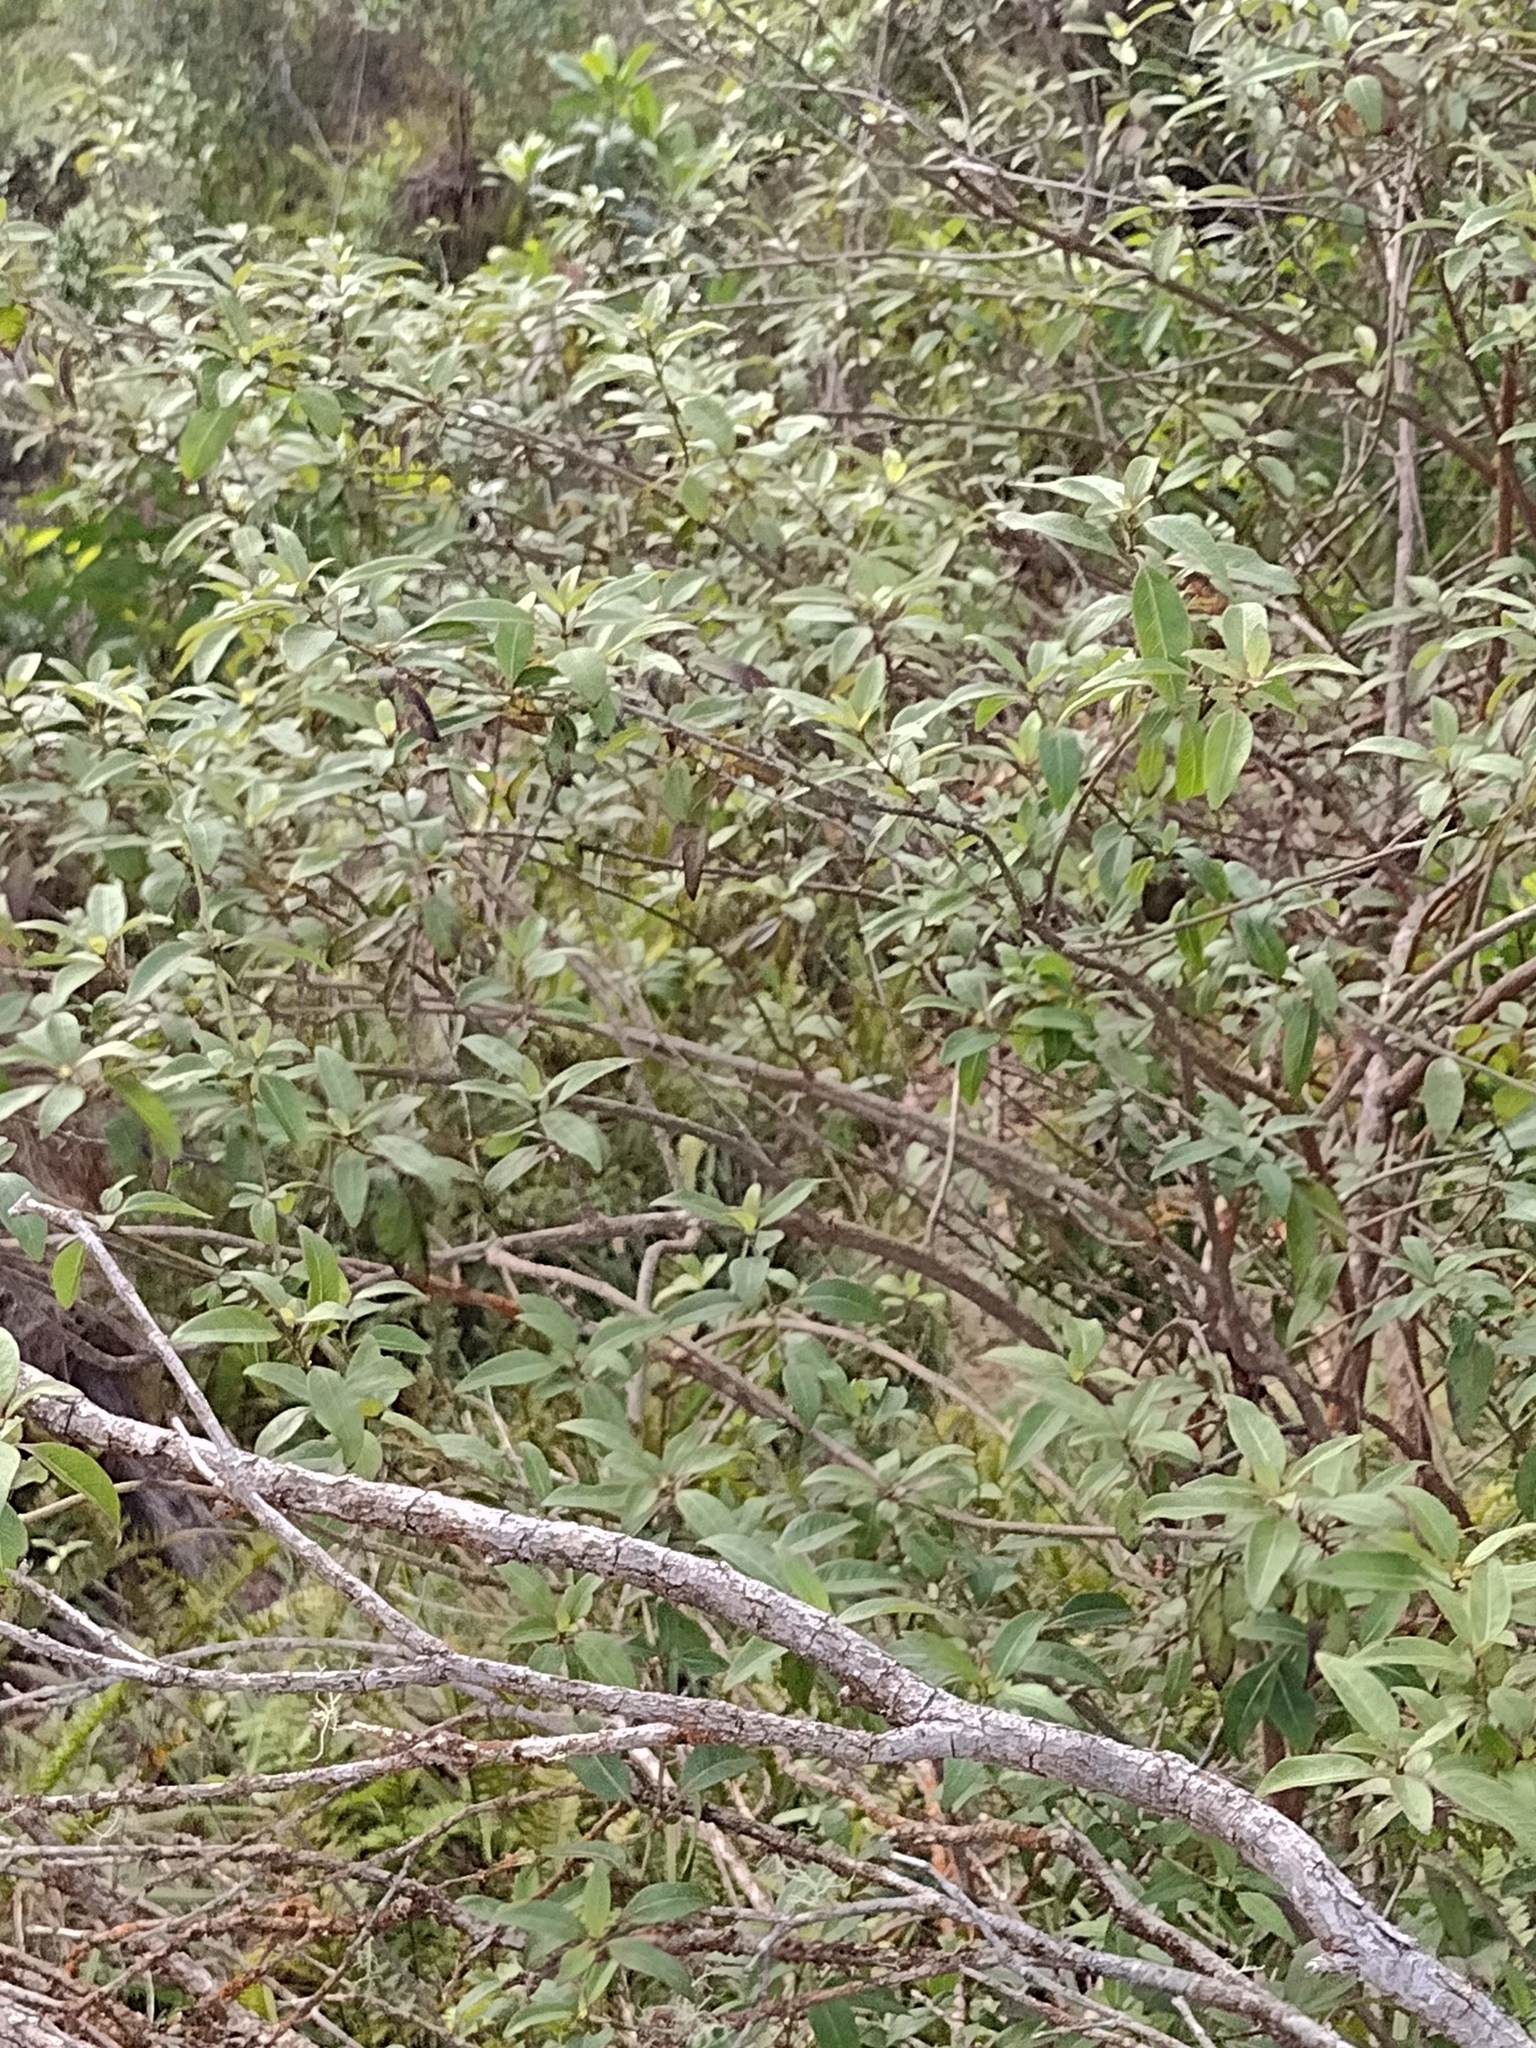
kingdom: Plantae
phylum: Tracheophyta
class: Magnoliopsida
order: Gentianales
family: Rubiaceae
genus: Coprosma
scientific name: Coprosma foliosa
